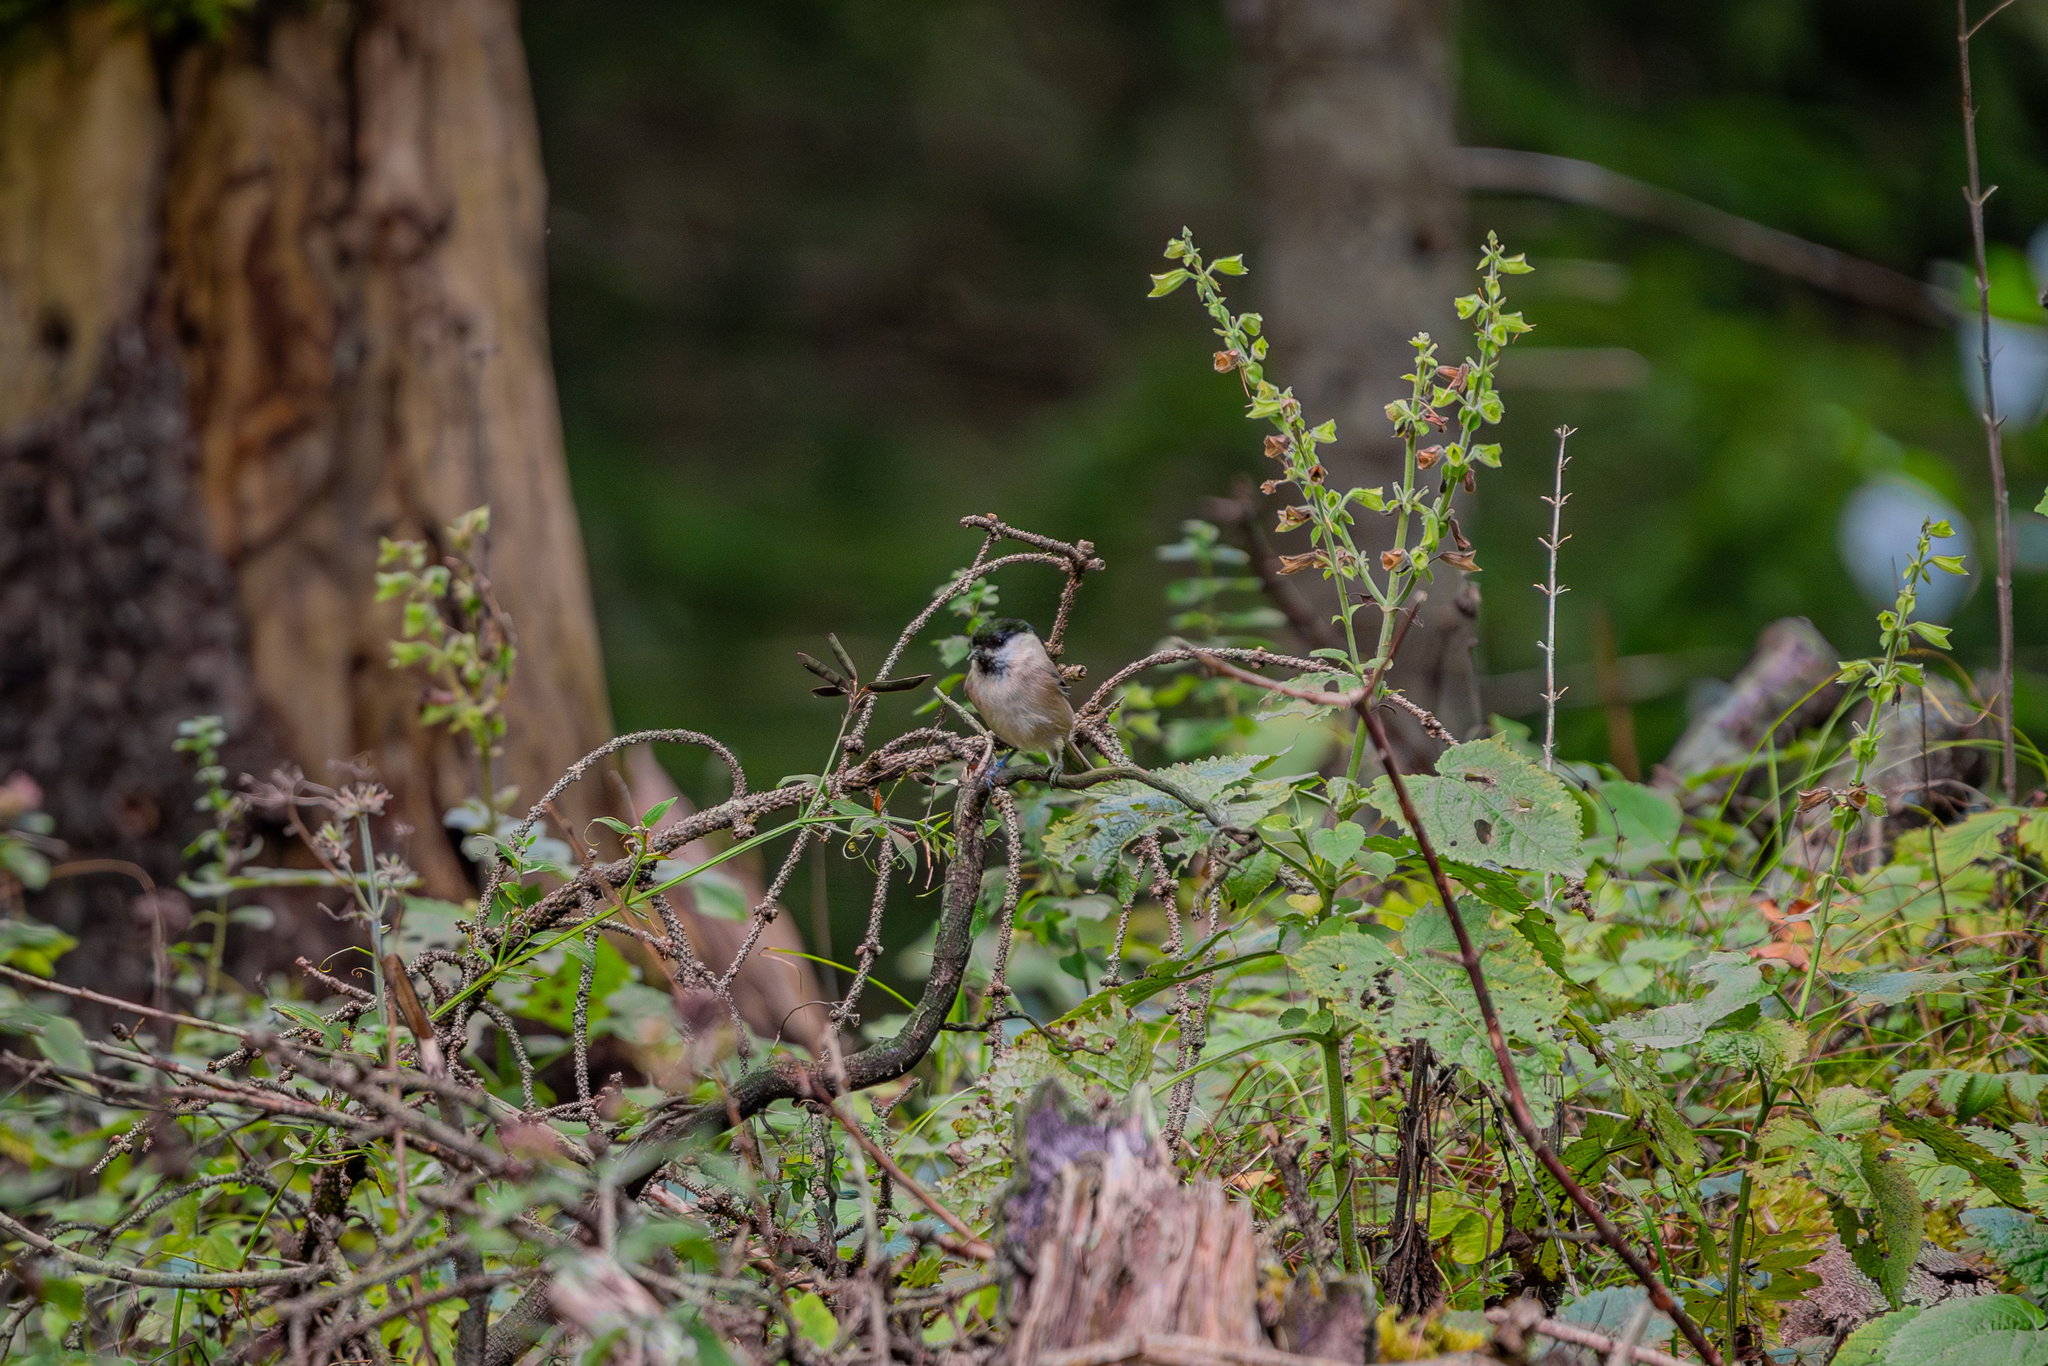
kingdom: Animalia
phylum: Chordata
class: Aves
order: Passeriformes
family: Paridae
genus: Poecile
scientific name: Poecile montanus
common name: Willow tit
